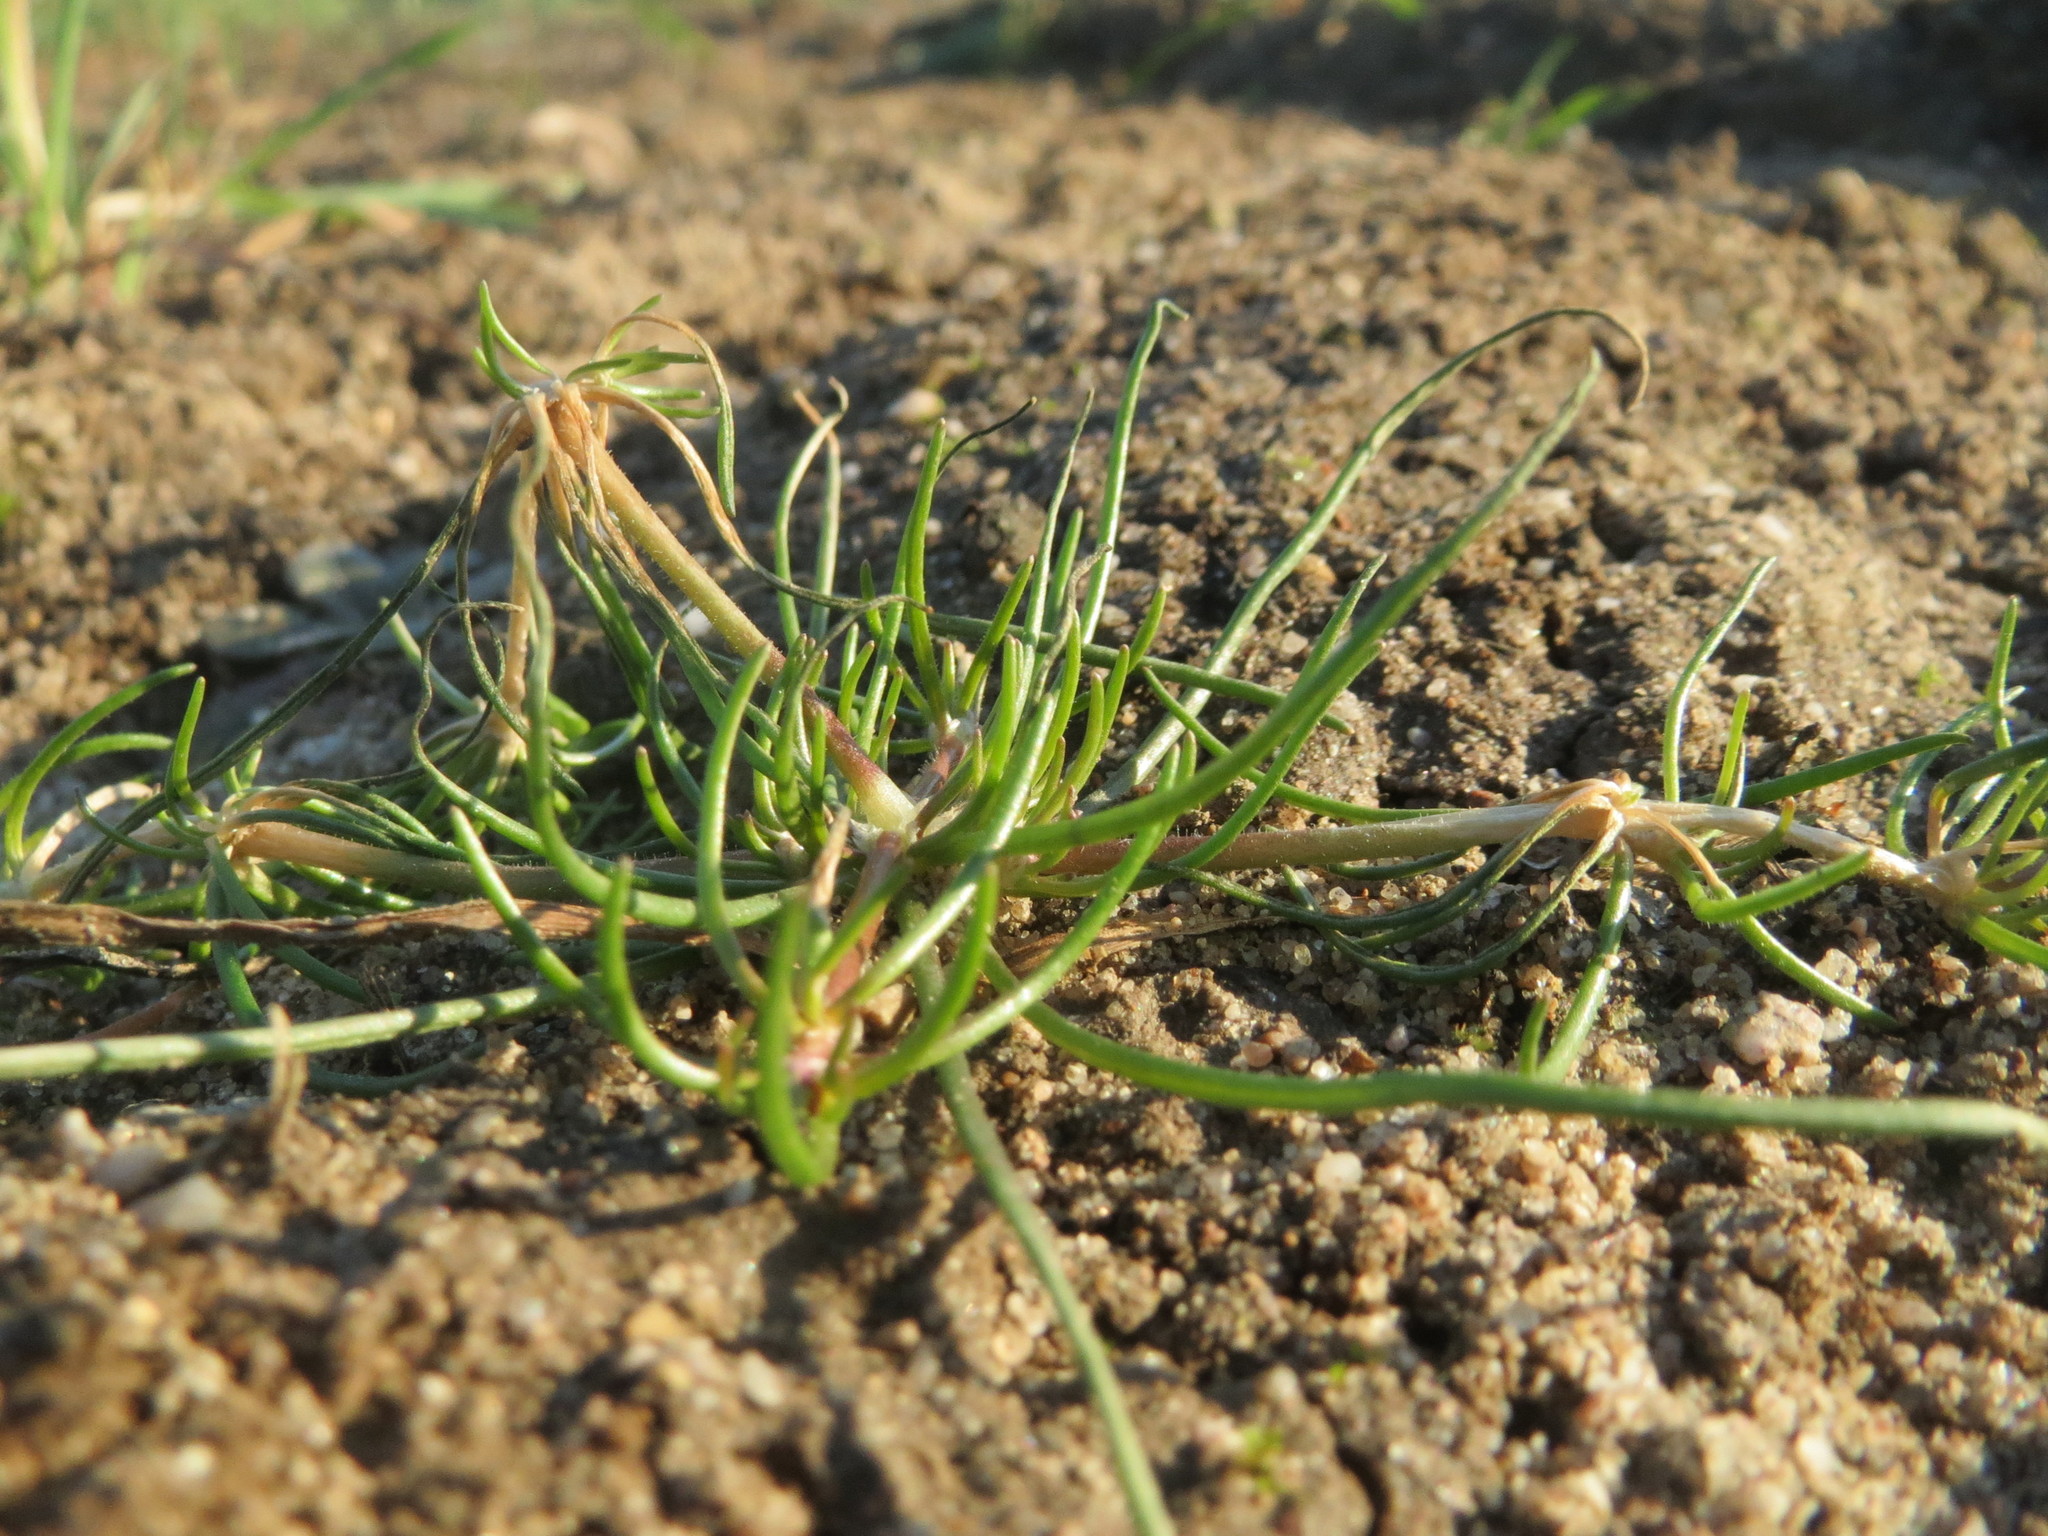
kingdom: Plantae
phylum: Tracheophyta
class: Magnoliopsida
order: Caryophyllales
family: Caryophyllaceae
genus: Spergula
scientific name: Spergula arvensis
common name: Corn spurrey
